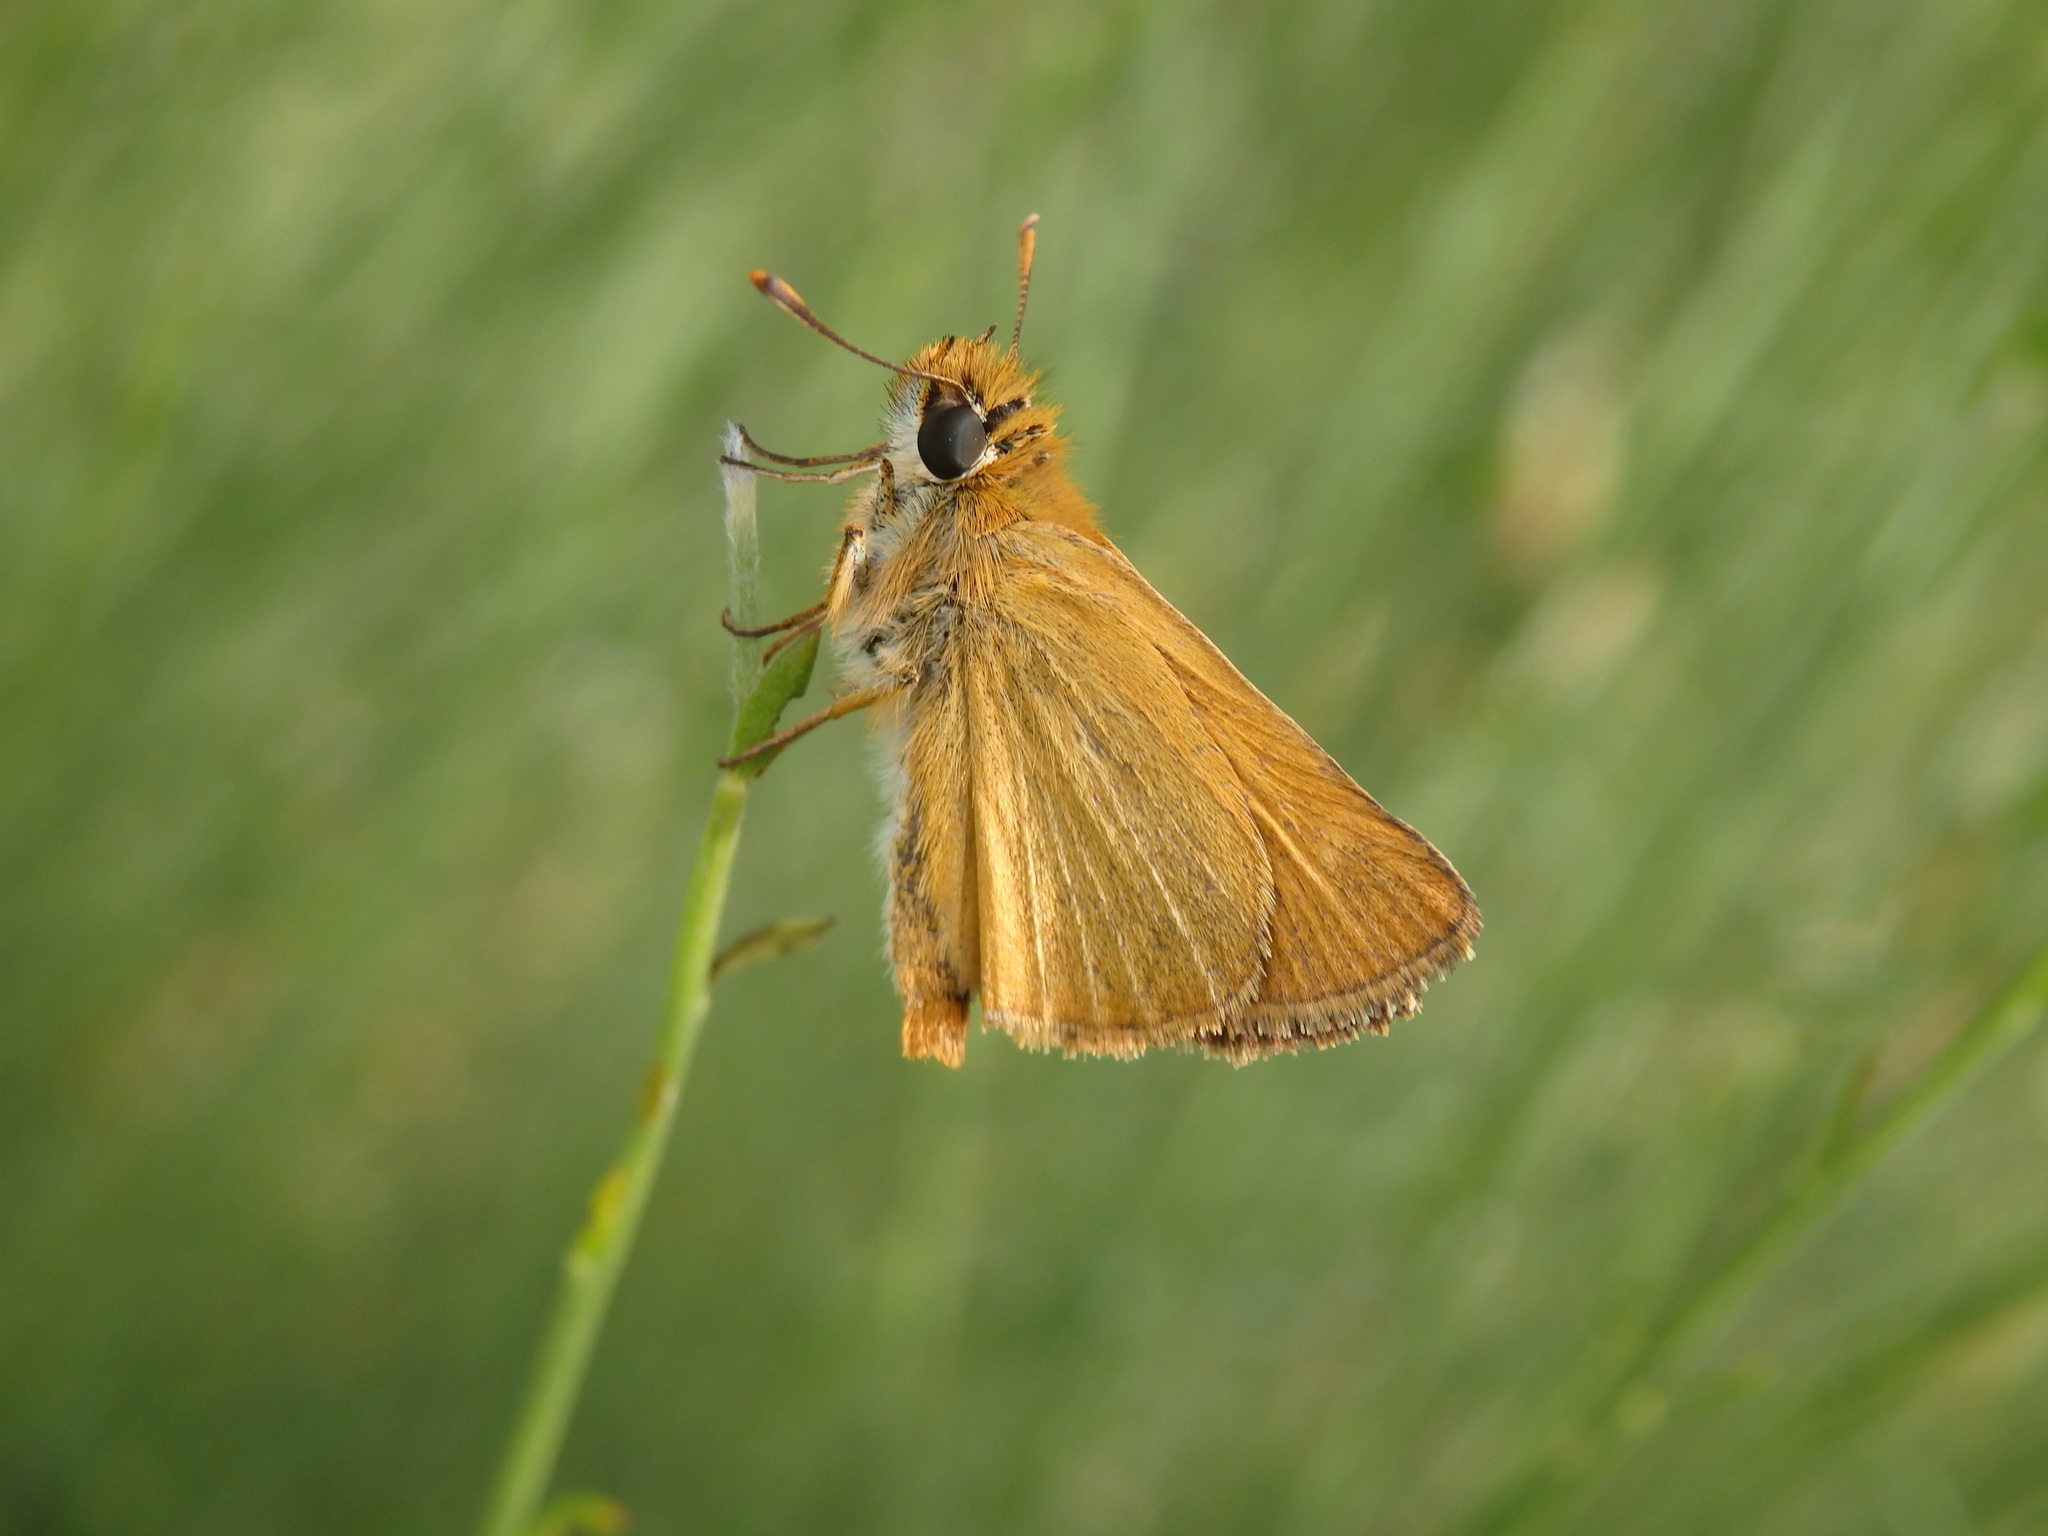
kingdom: Animalia
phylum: Arthropoda
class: Insecta
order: Lepidoptera
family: Hesperiidae
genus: Thymelicus
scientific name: Thymelicus acteon
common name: Lulworth skipper
